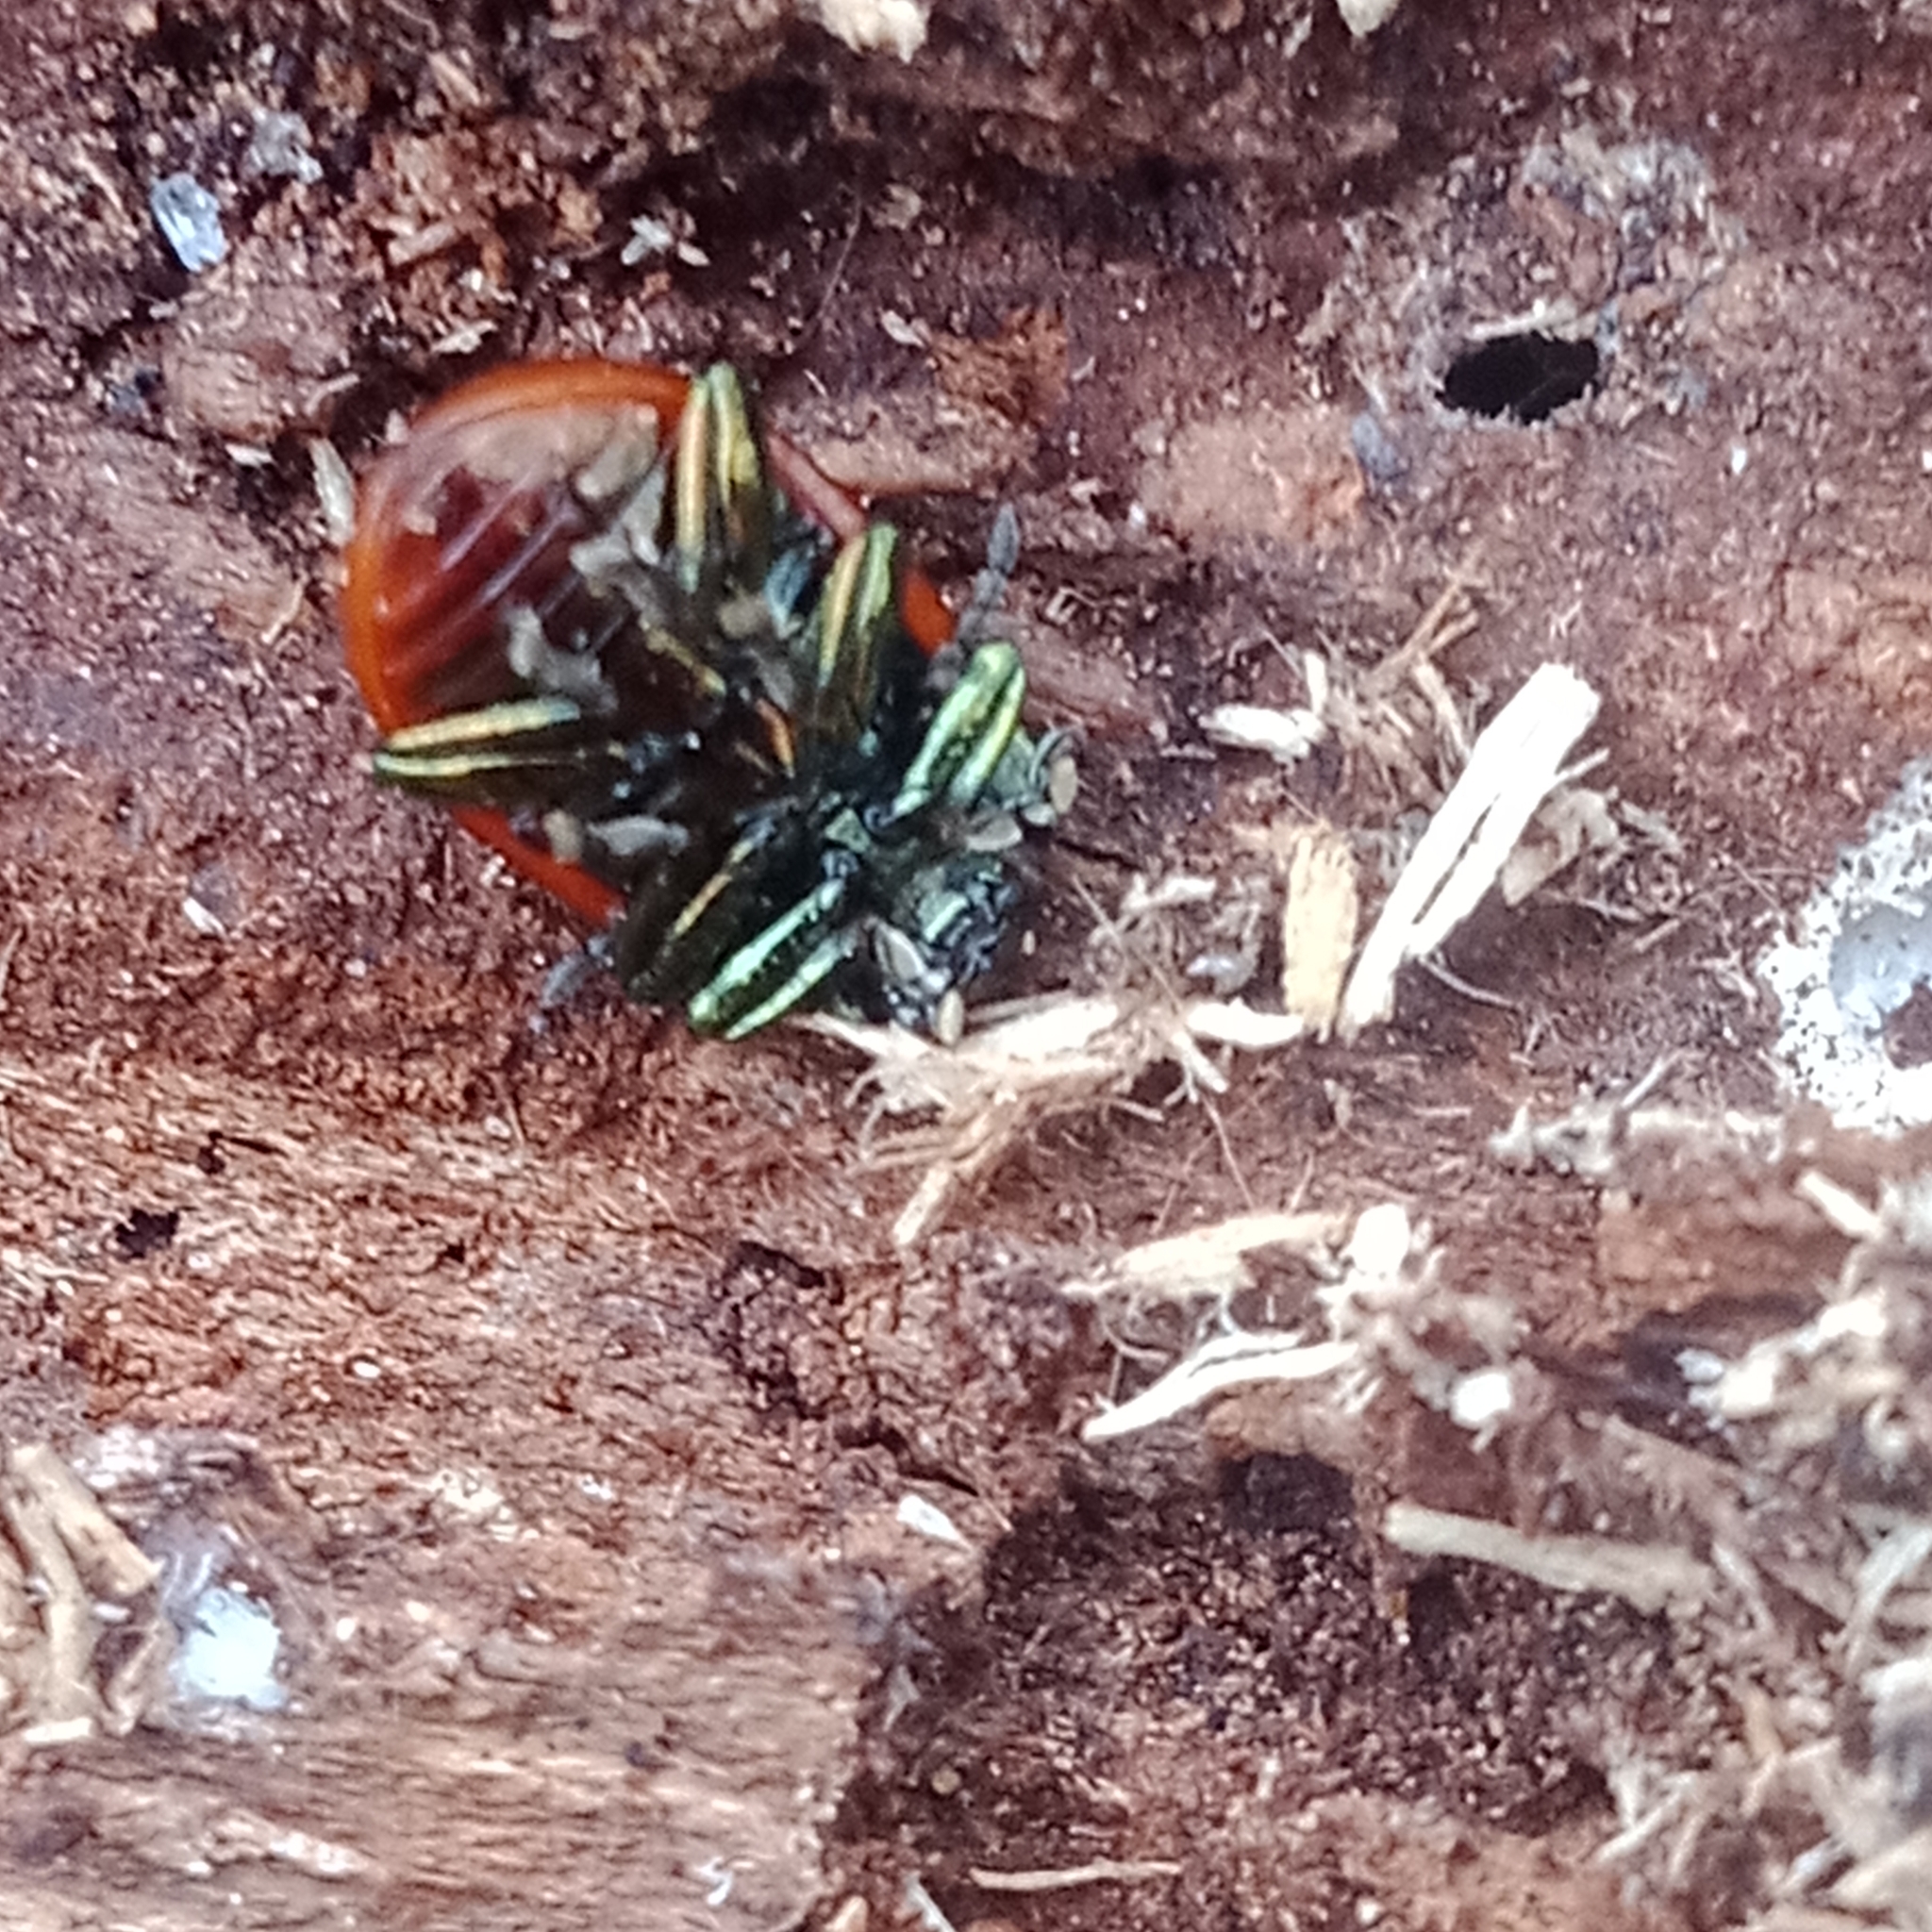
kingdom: Animalia
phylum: Arthropoda
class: Insecta
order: Coleoptera
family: Chrysomelidae
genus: Chrysomela
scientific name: Chrysomela polita
